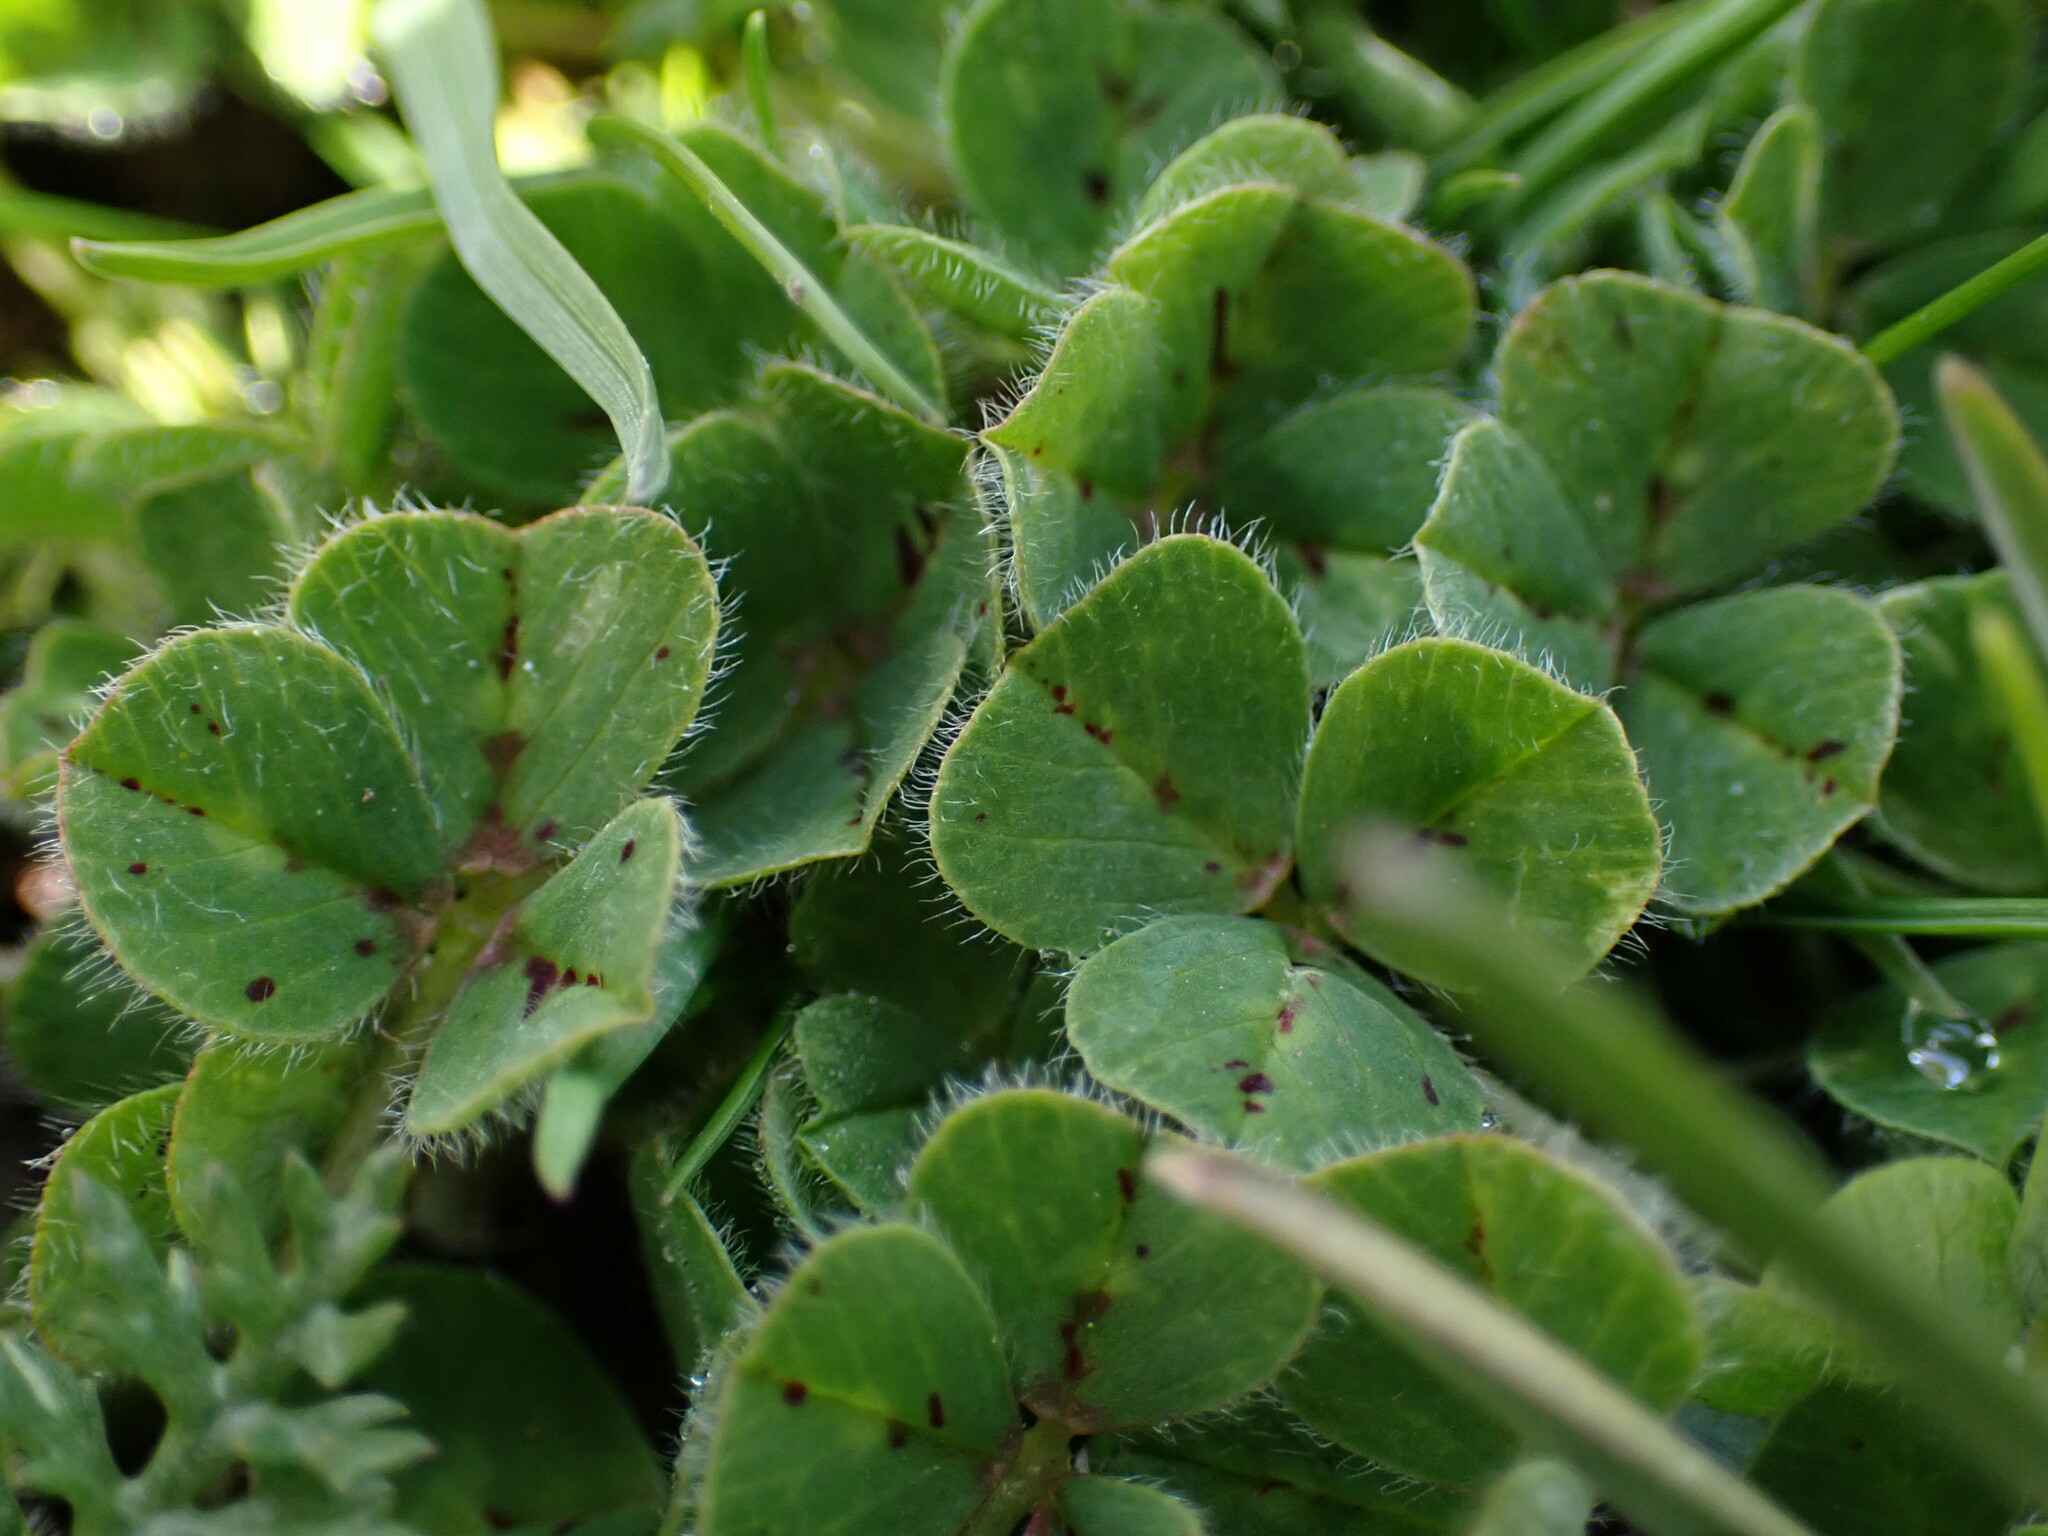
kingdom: Plantae
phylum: Tracheophyta
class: Magnoliopsida
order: Fabales
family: Fabaceae
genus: Trifolium
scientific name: Trifolium subterraneum
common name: Subterranean clover
